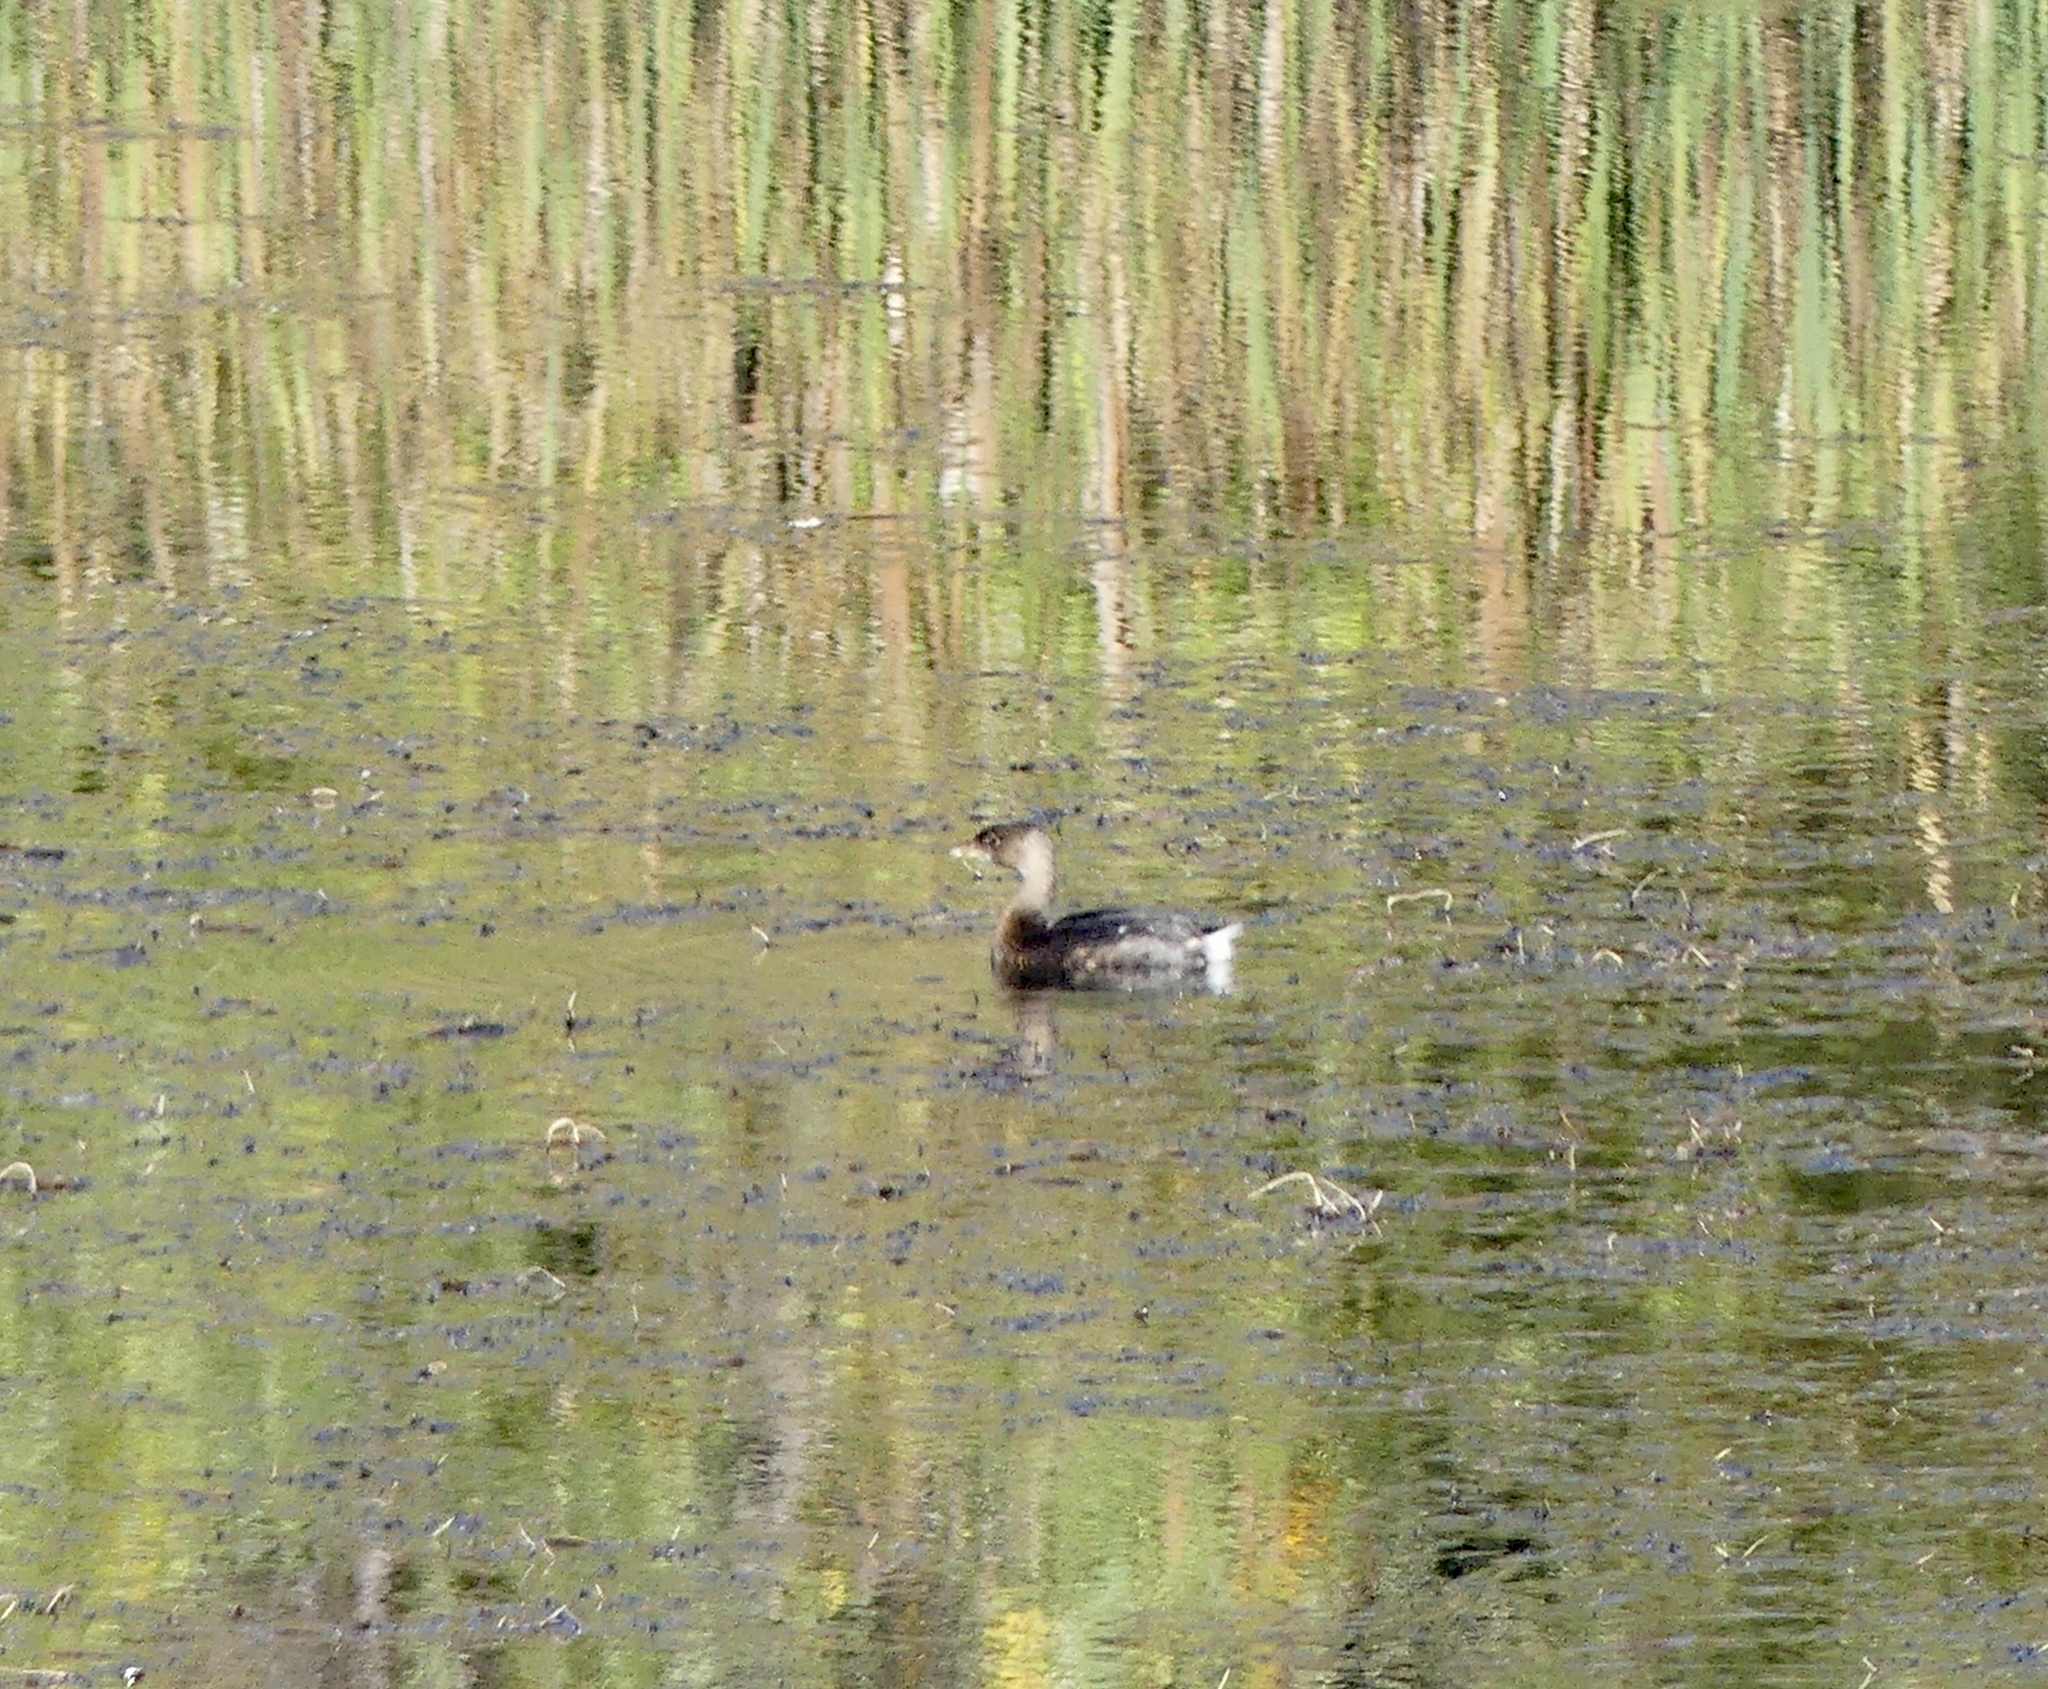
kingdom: Animalia
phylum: Chordata
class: Aves
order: Podicipediformes
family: Podicipedidae
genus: Podilymbus
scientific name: Podilymbus podiceps
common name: Pied-billed grebe
